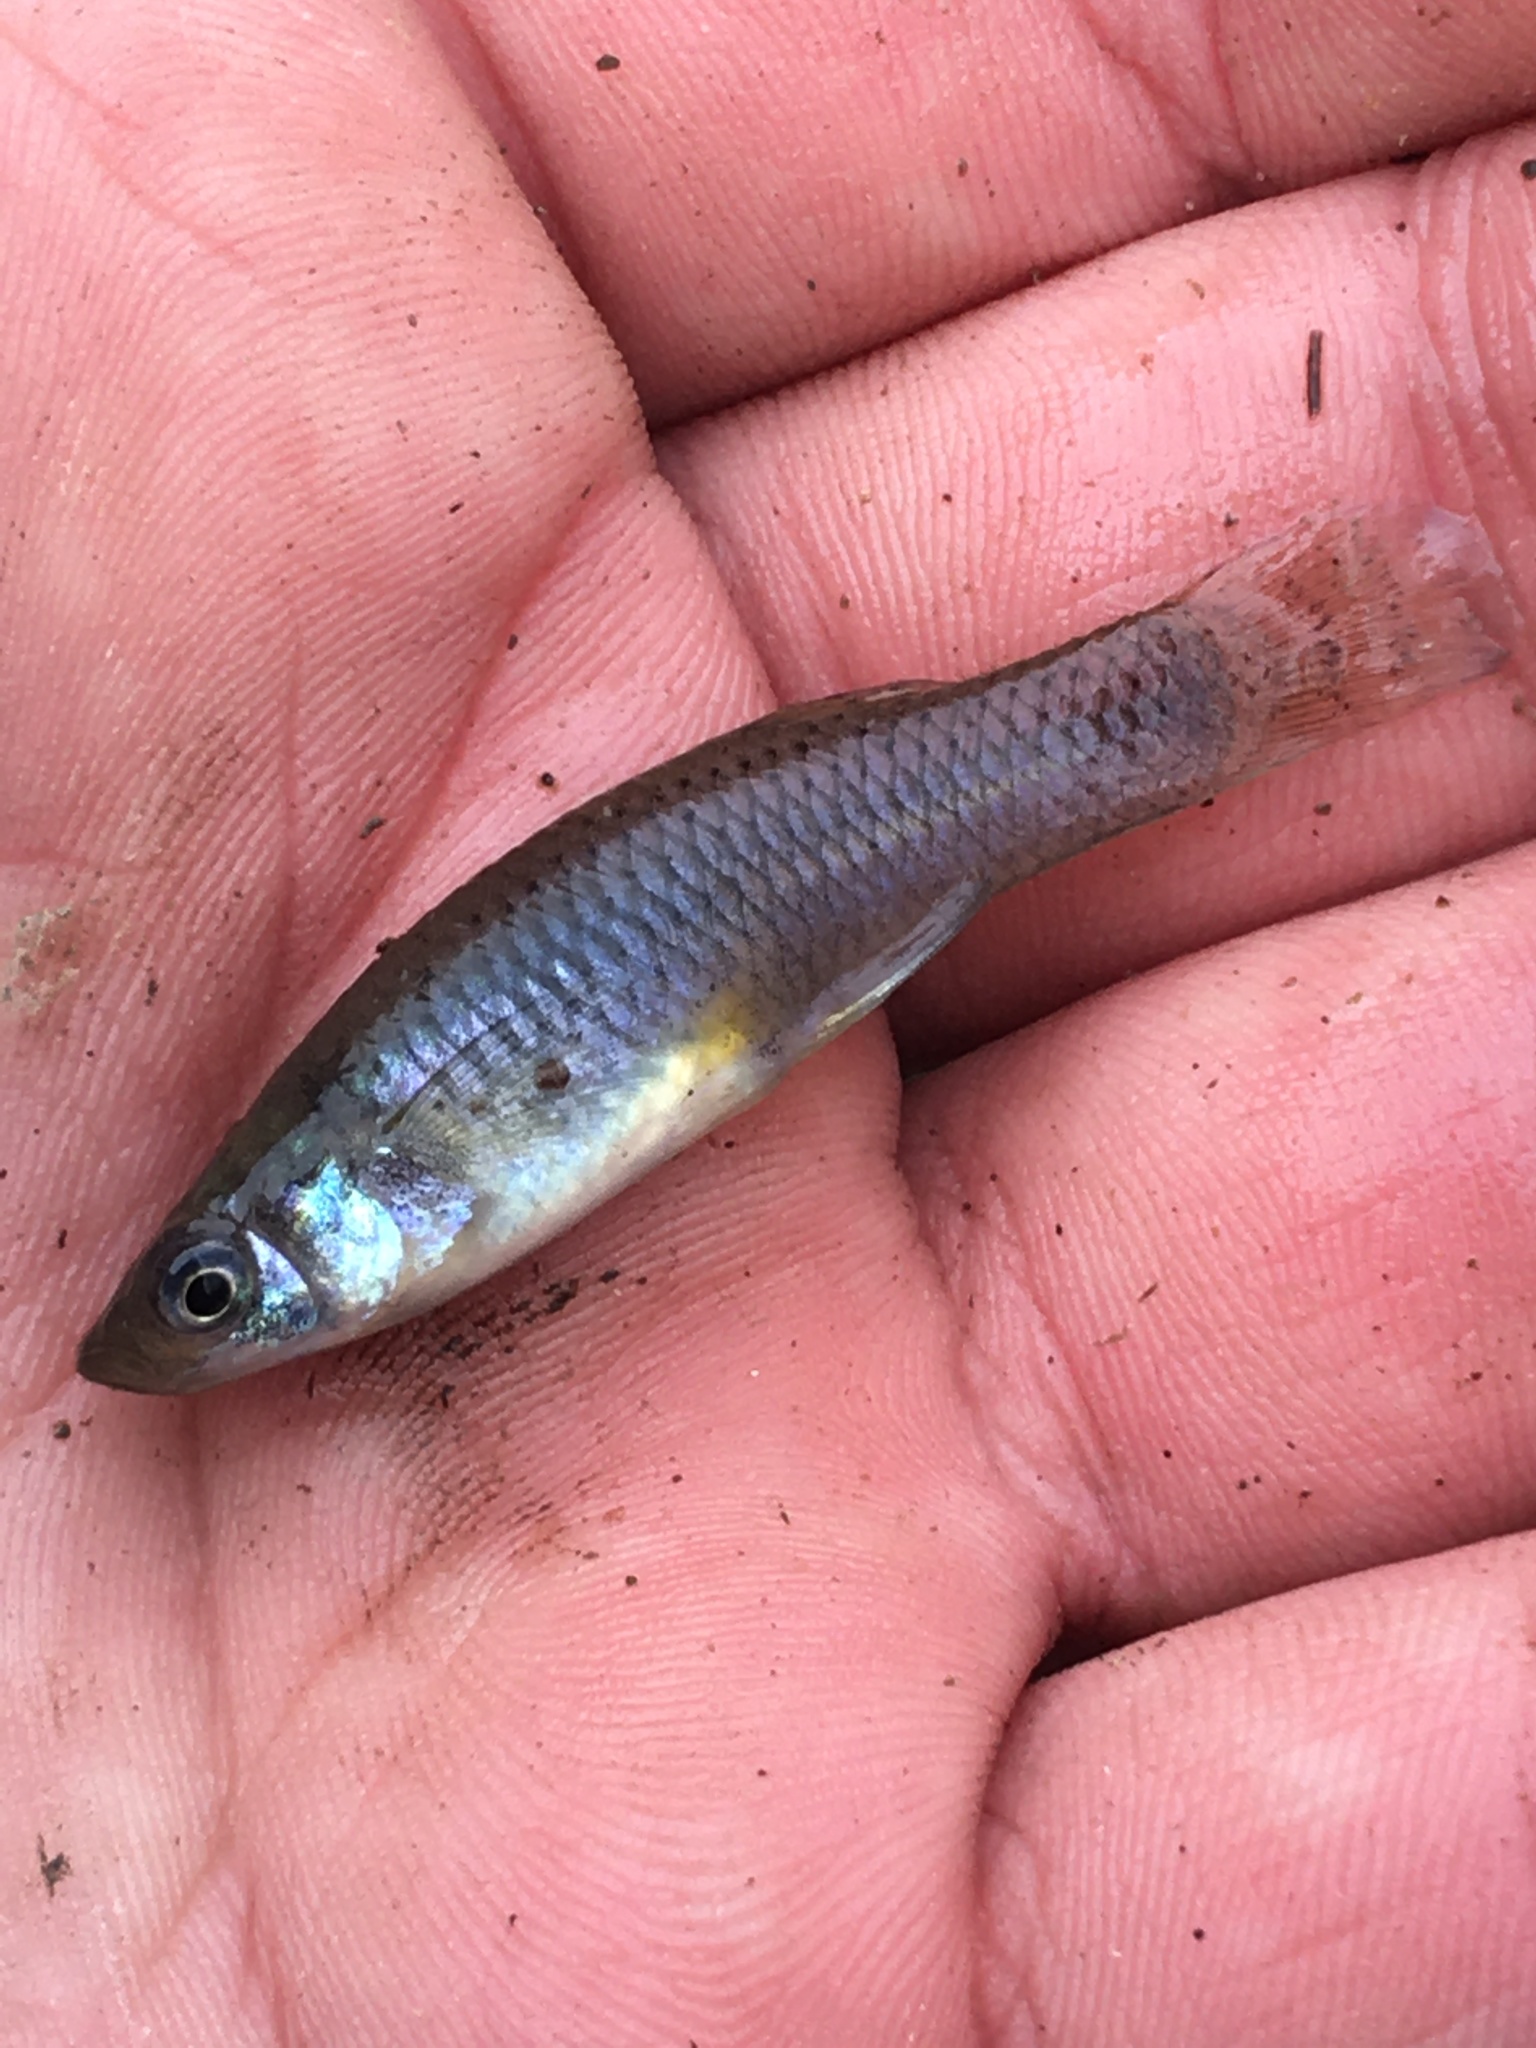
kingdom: Animalia
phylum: Chordata
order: Cyprinodontiformes
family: Poeciliidae
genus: Gambusia
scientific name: Gambusia affinis
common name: Mosquitofish
